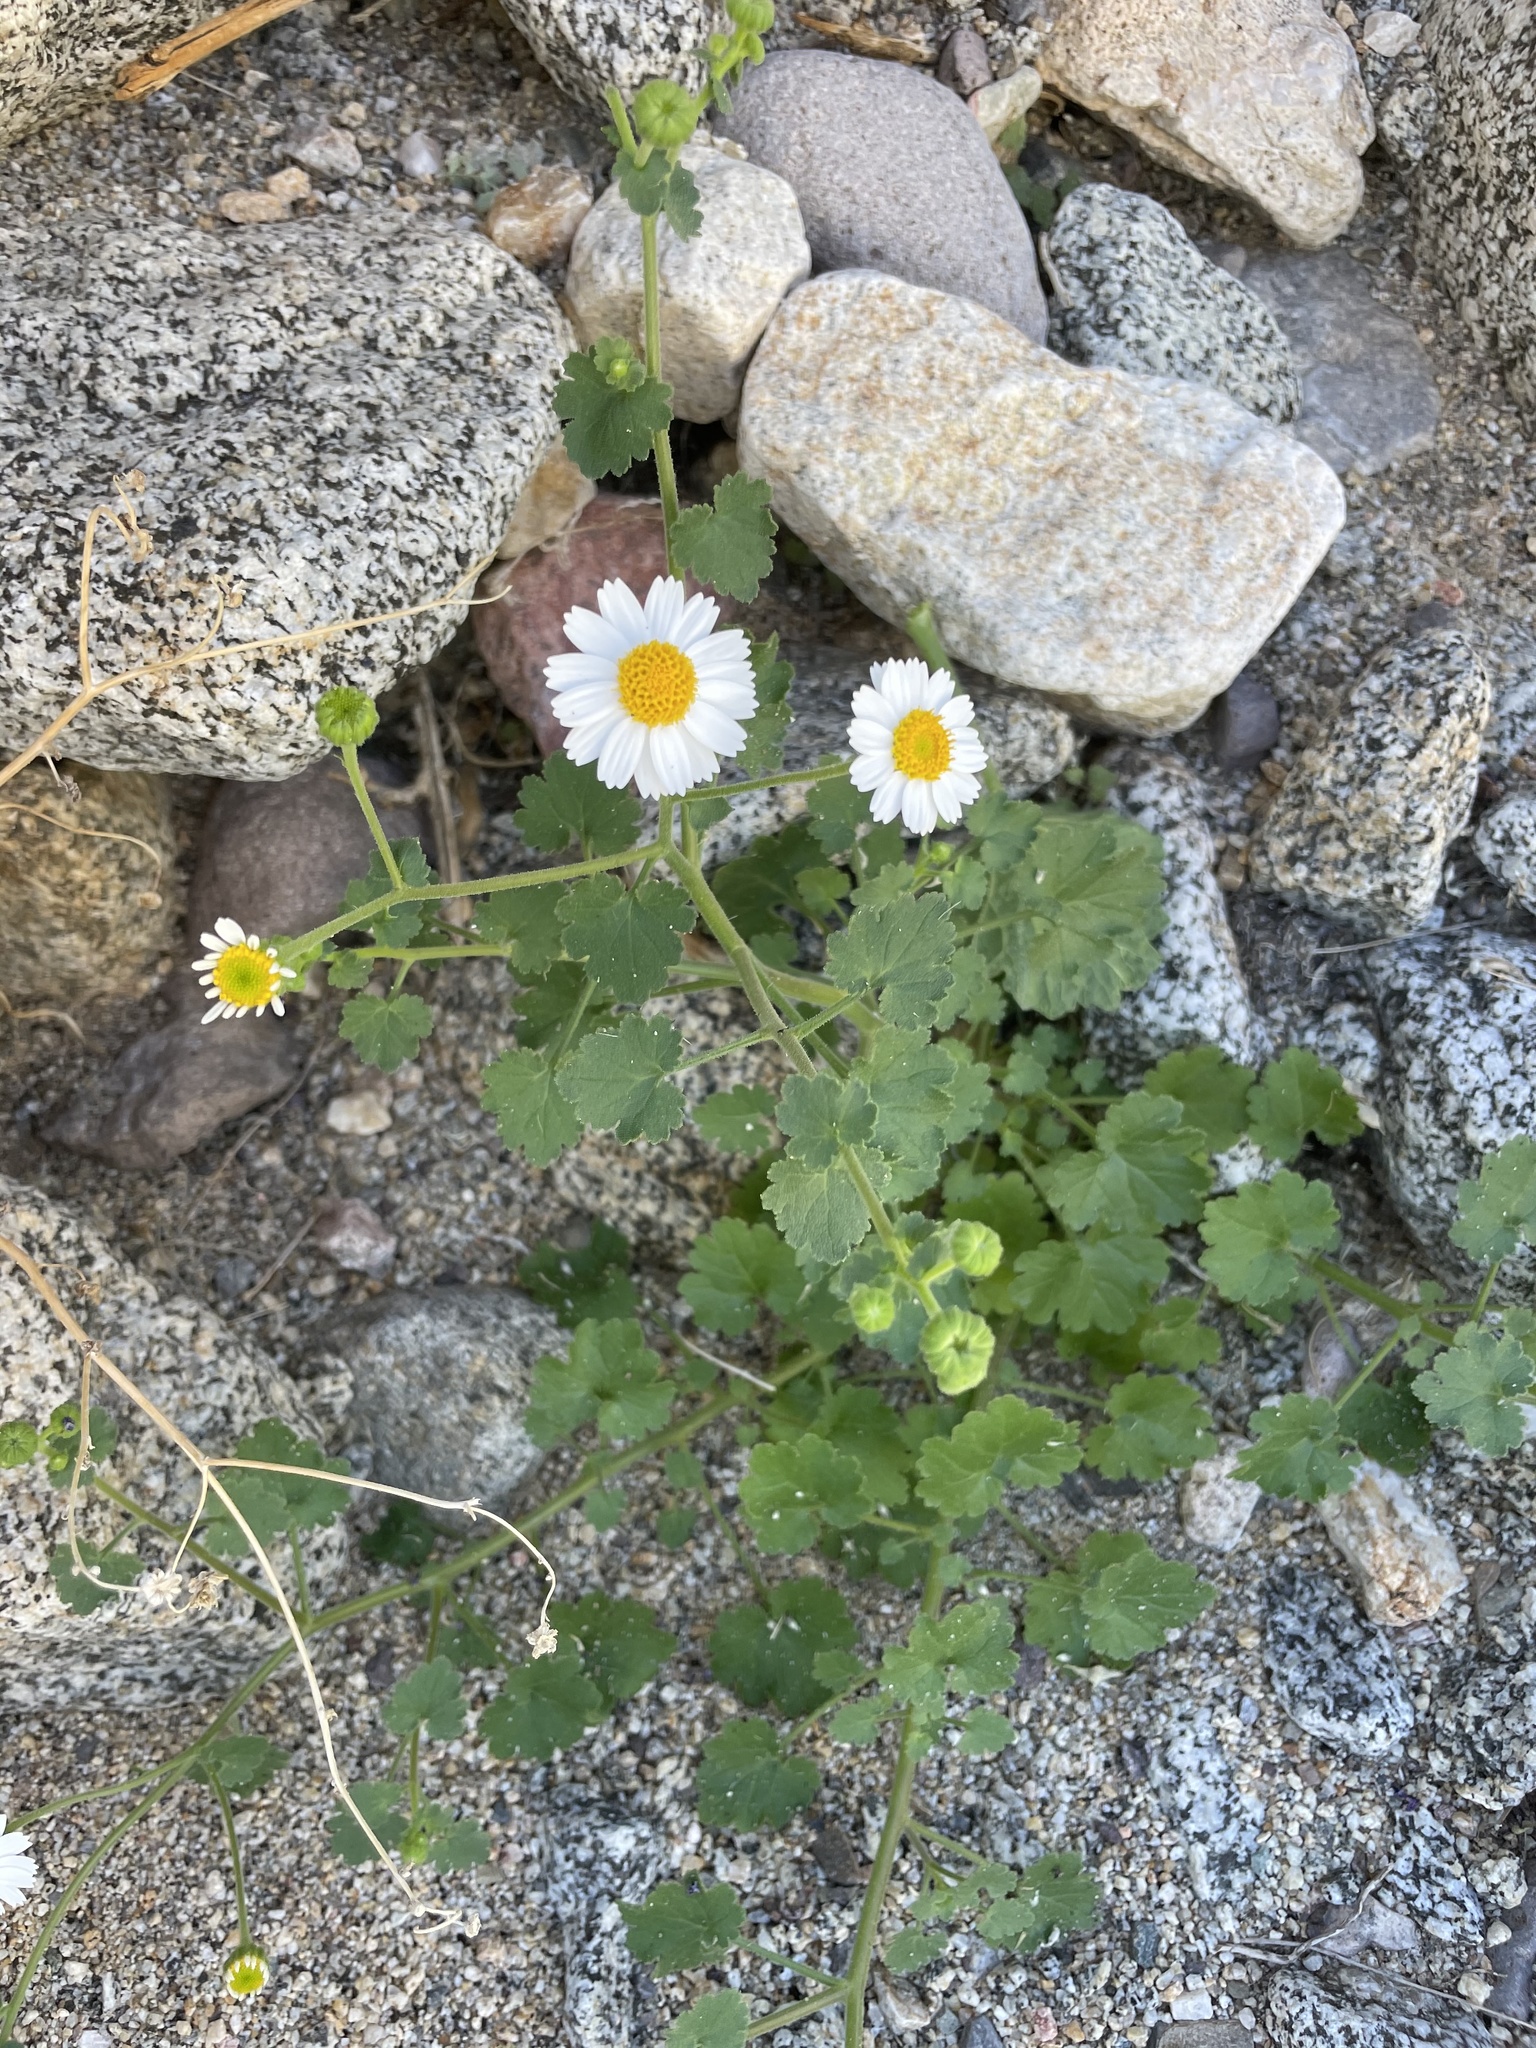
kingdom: Plantae
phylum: Tracheophyta
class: Magnoliopsida
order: Asterales
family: Asteraceae
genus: Perityle
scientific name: Perityle brandegeeana
